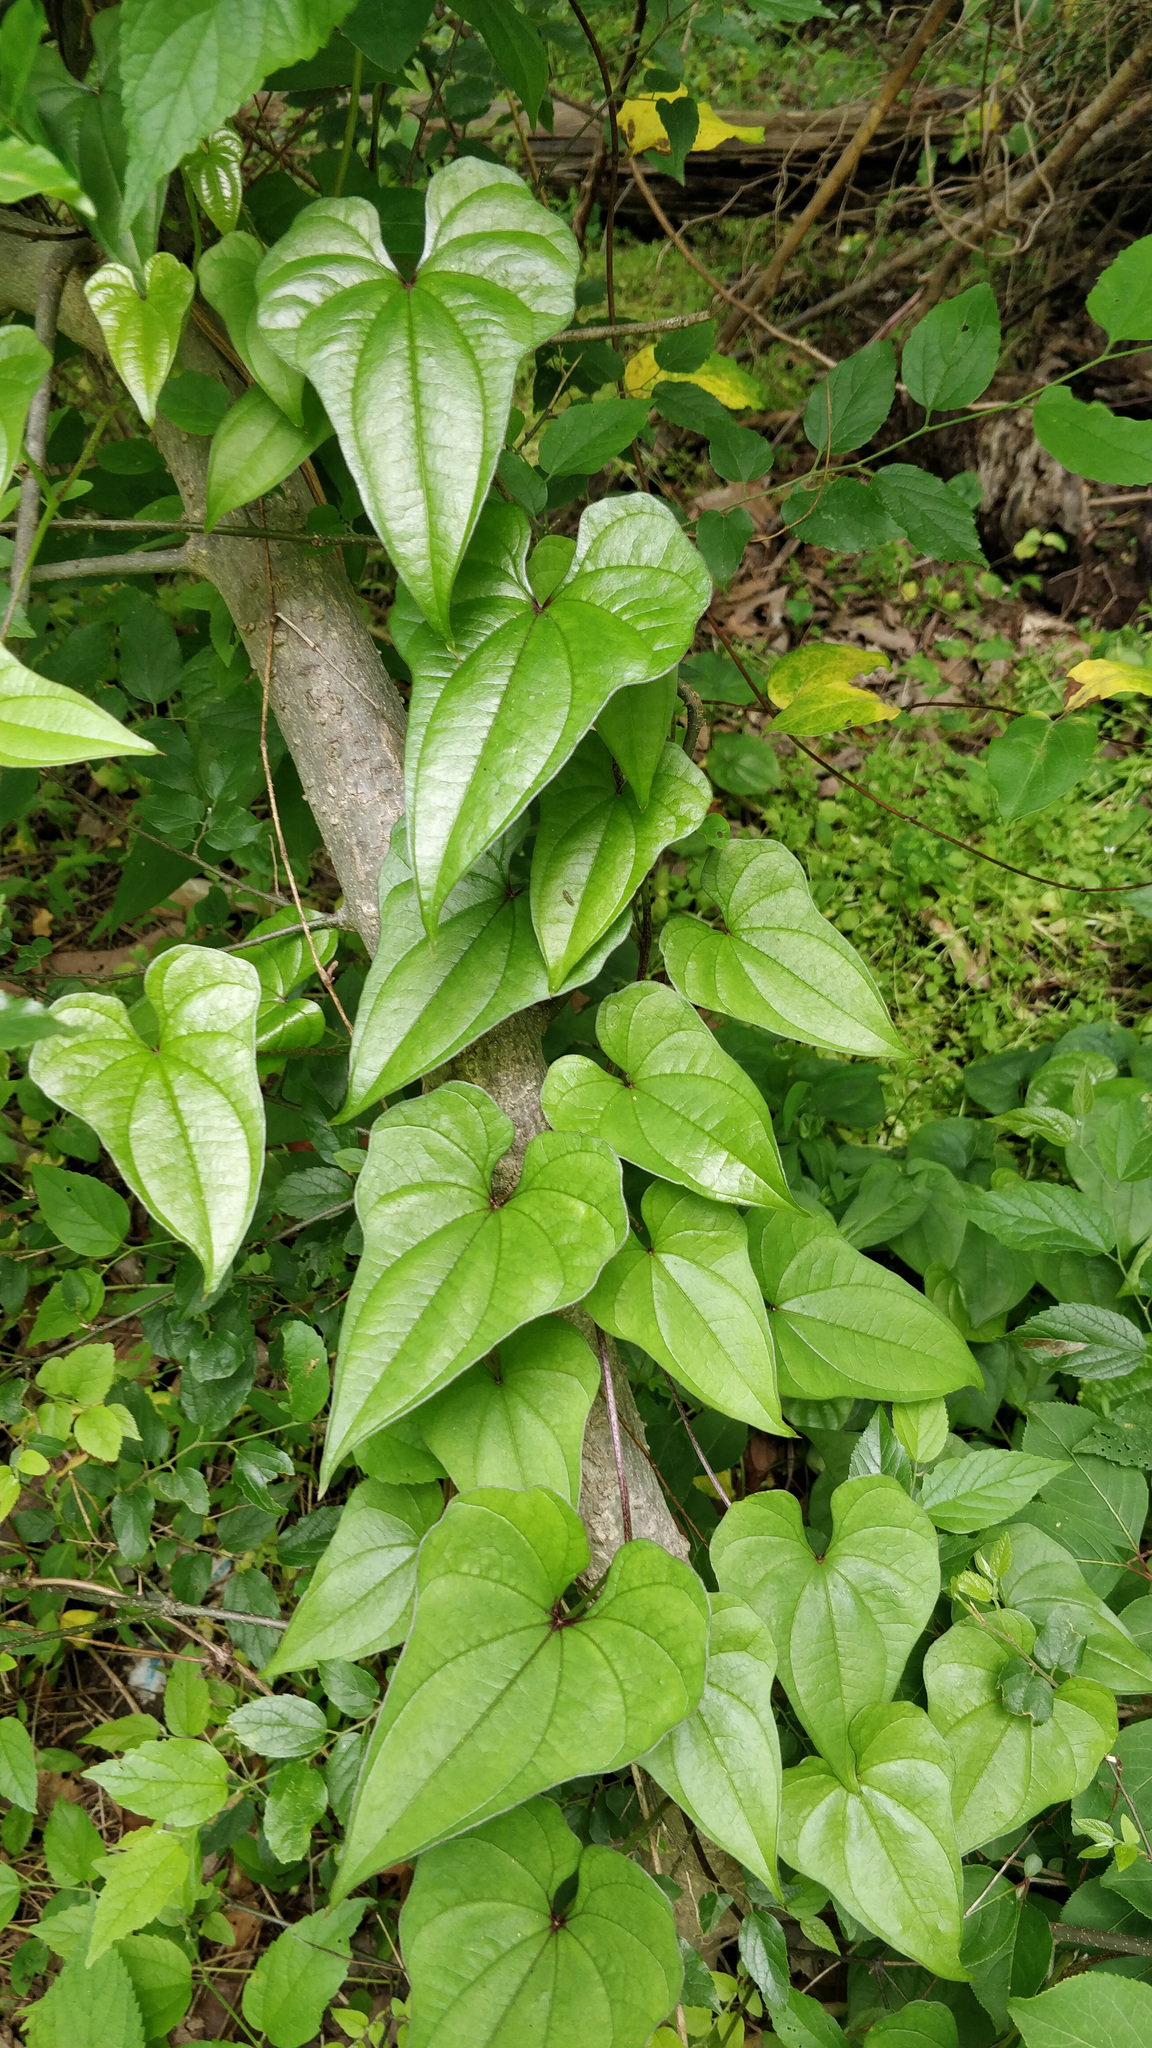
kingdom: Plantae
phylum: Tracheophyta
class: Liliopsida
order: Dioscoreales
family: Dioscoreaceae
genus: Dioscorea
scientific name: Dioscorea polystachya
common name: Chinese yam
